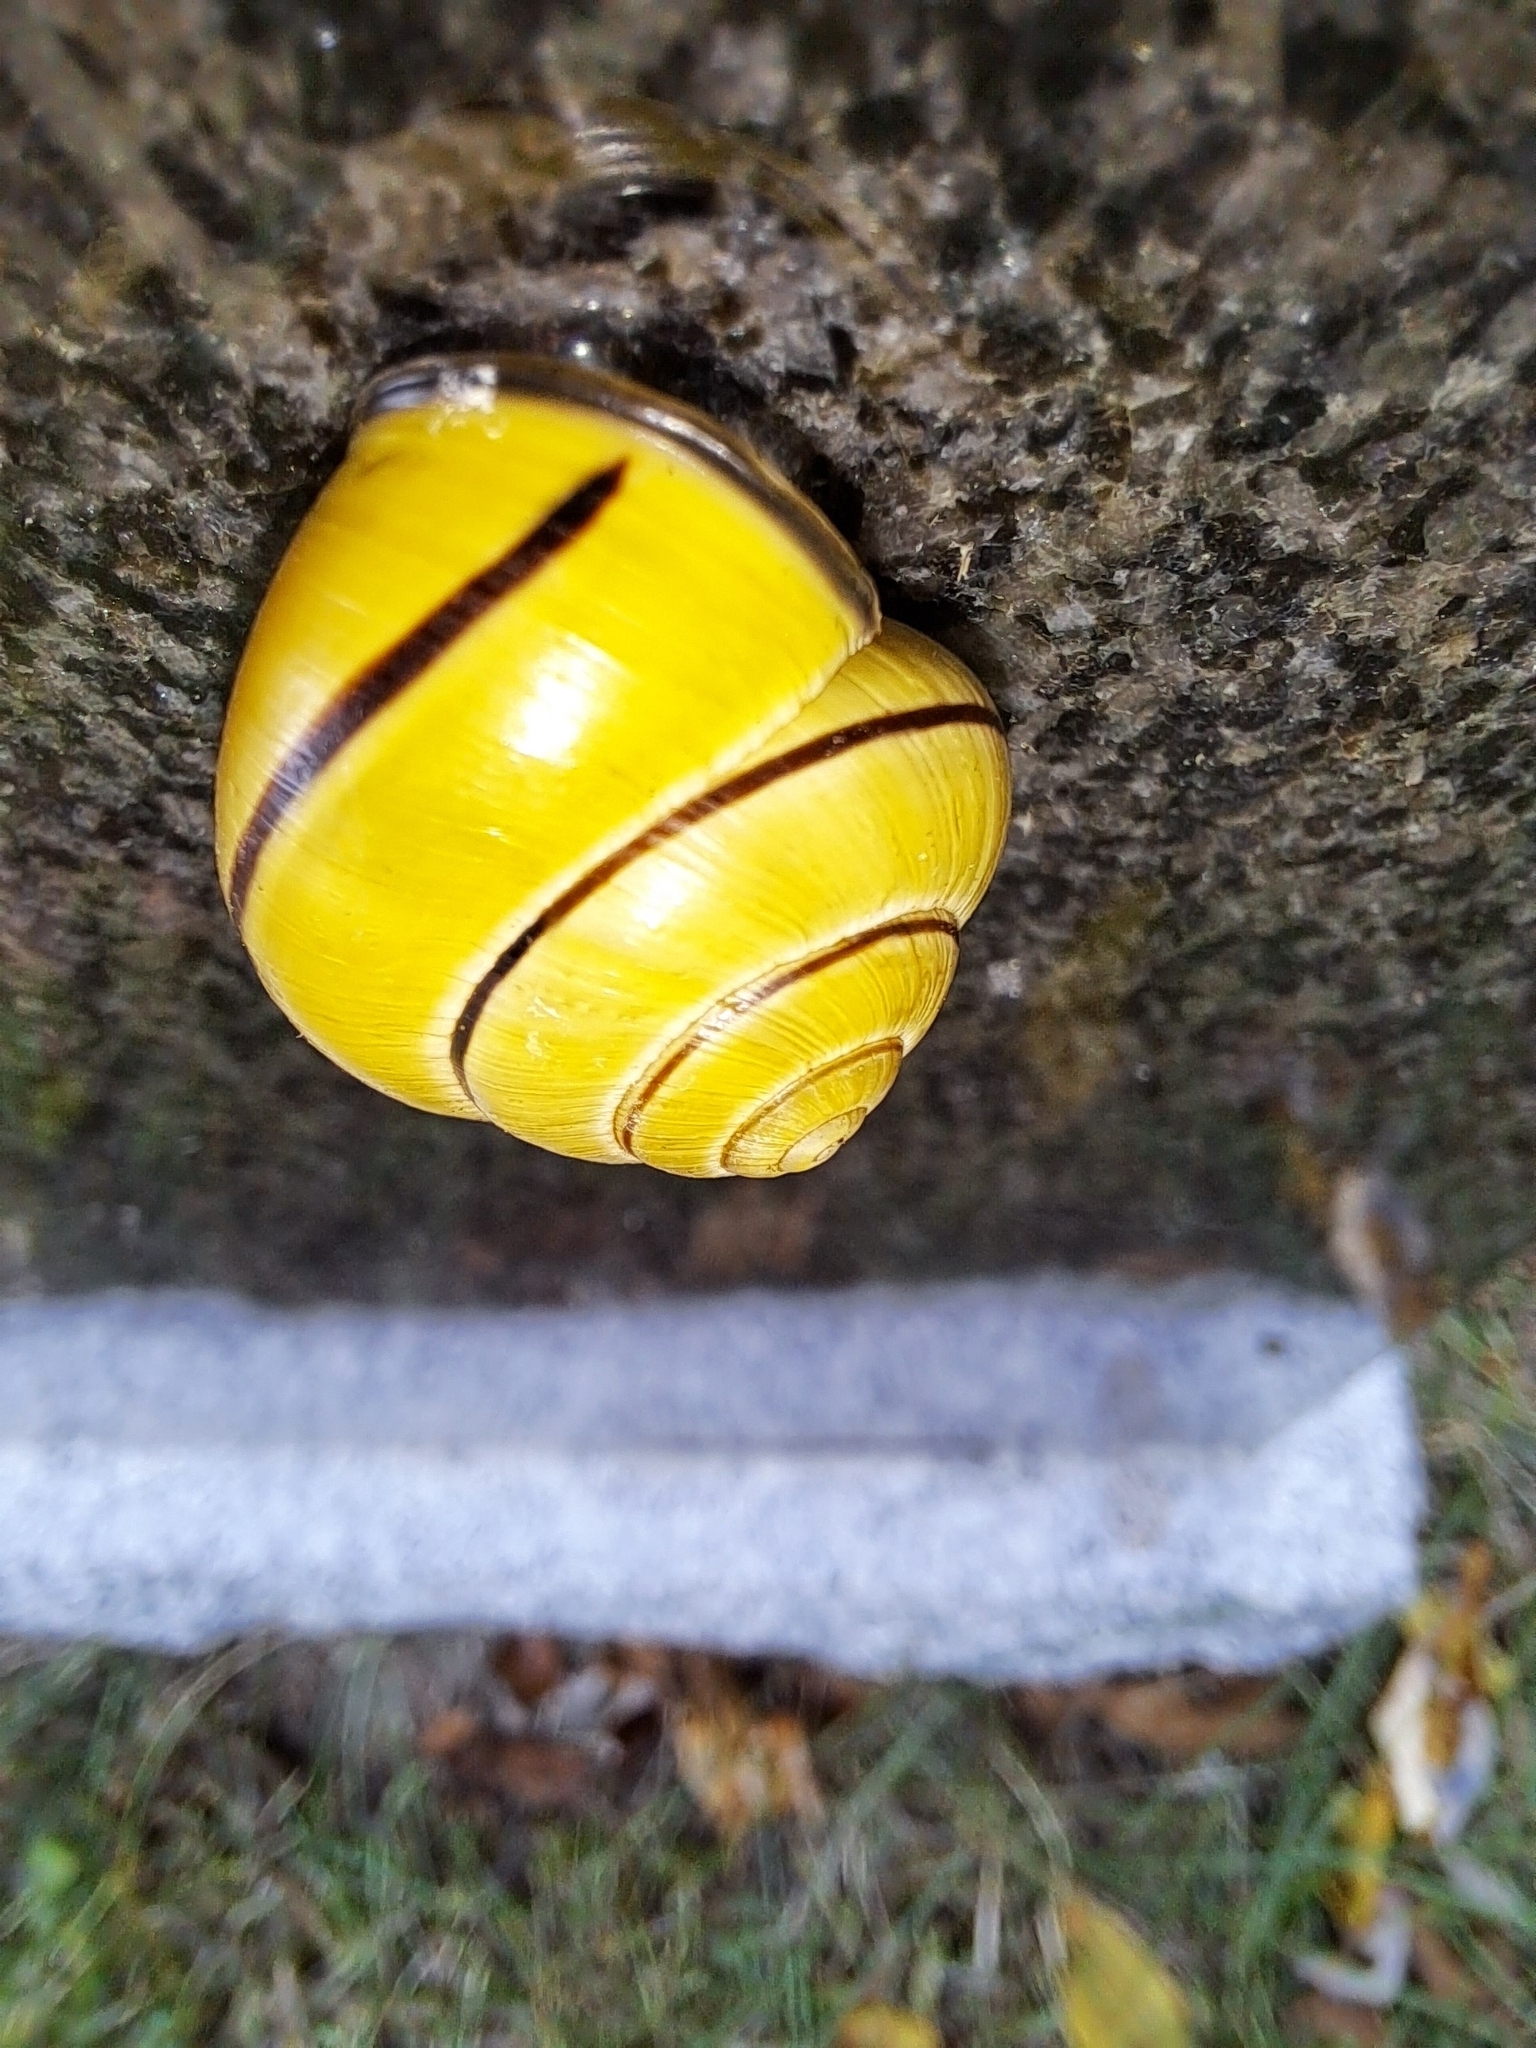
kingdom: Animalia
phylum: Mollusca
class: Gastropoda
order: Stylommatophora
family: Helicidae
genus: Cepaea
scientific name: Cepaea nemoralis
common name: Grovesnail
